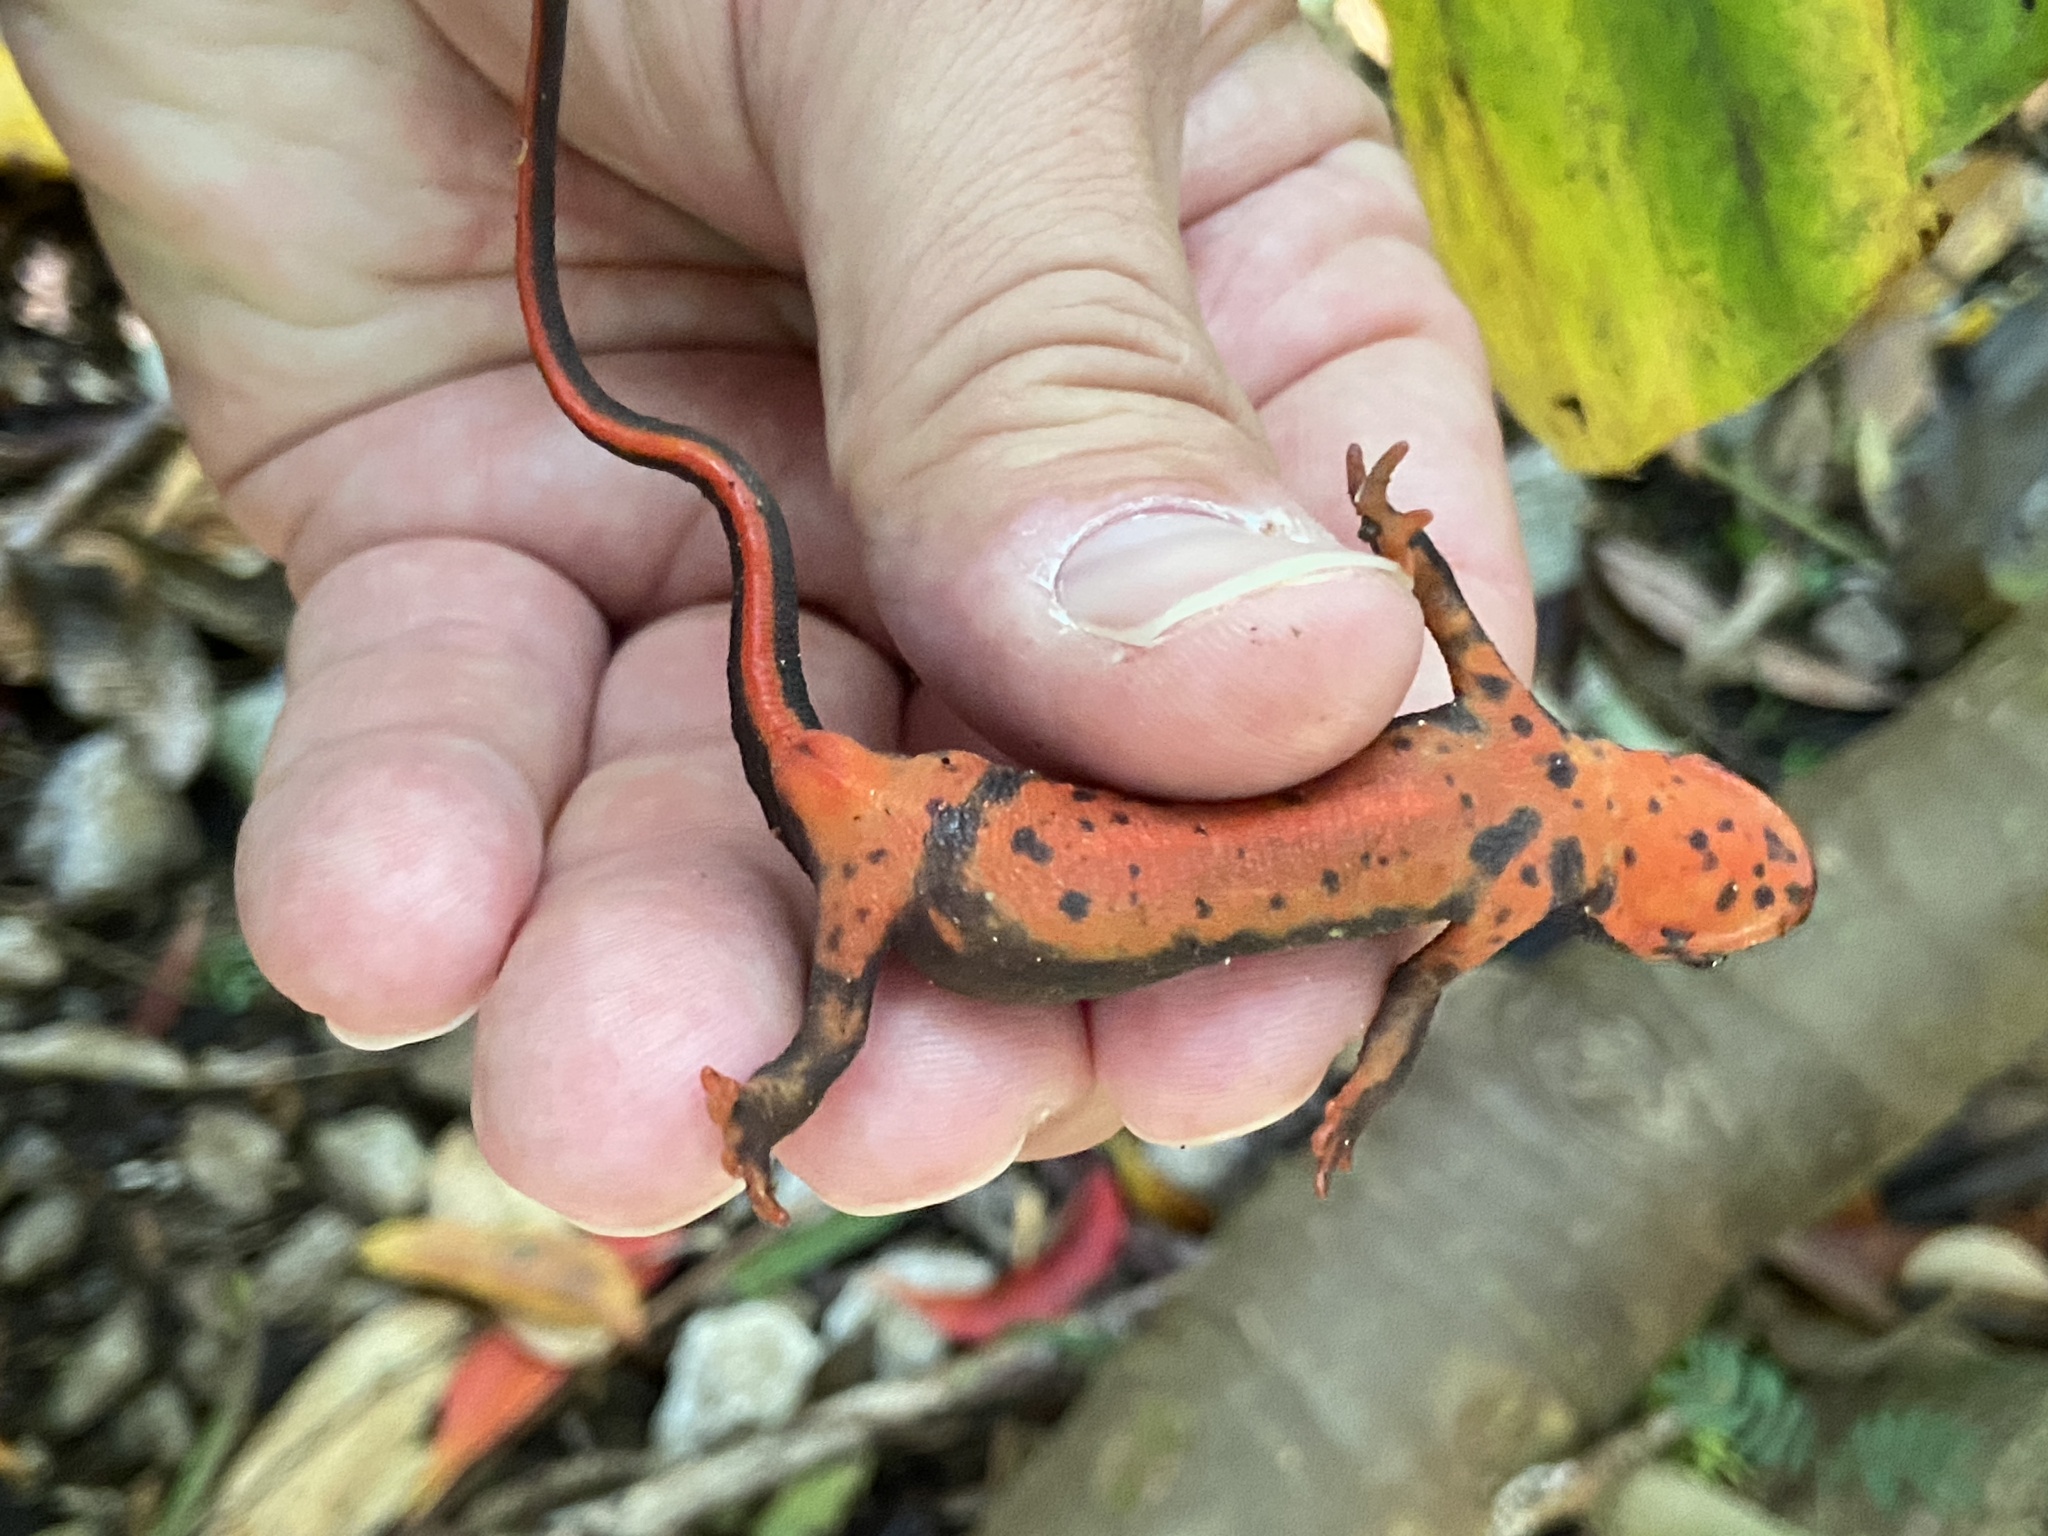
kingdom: Animalia
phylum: Chordata
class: Amphibia
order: Caudata
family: Salamandridae
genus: Cynops
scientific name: Cynops ensicauda
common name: Sword-tailed newt
